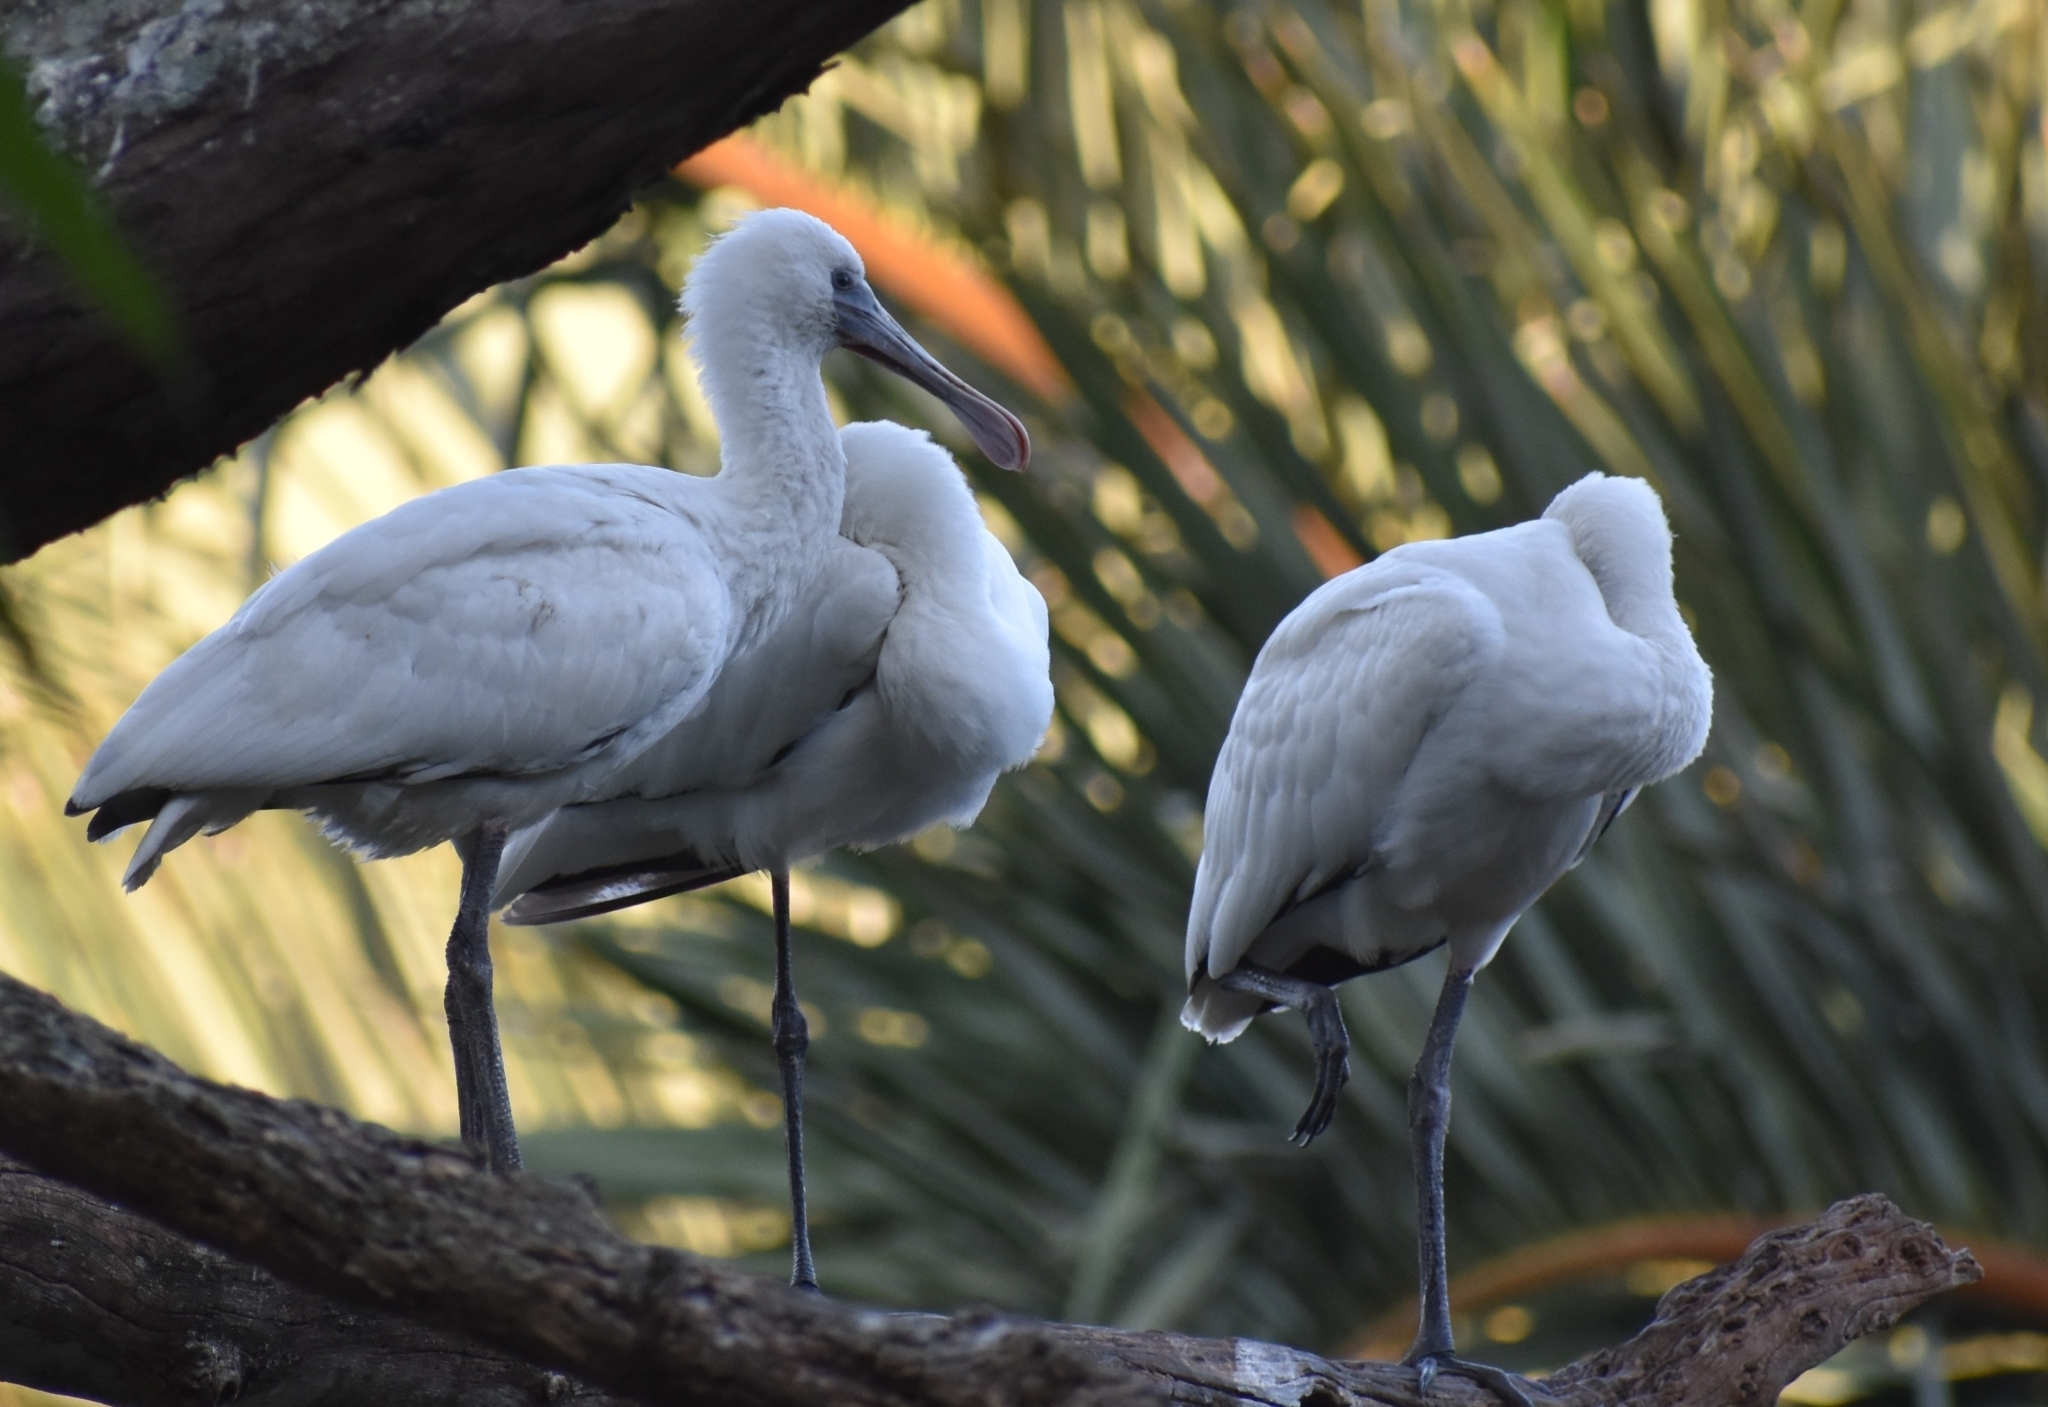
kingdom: Animalia
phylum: Chordata
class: Aves
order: Pelecaniformes
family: Threskiornithidae
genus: Platalea
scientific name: Platalea alba
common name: African spoonbill
